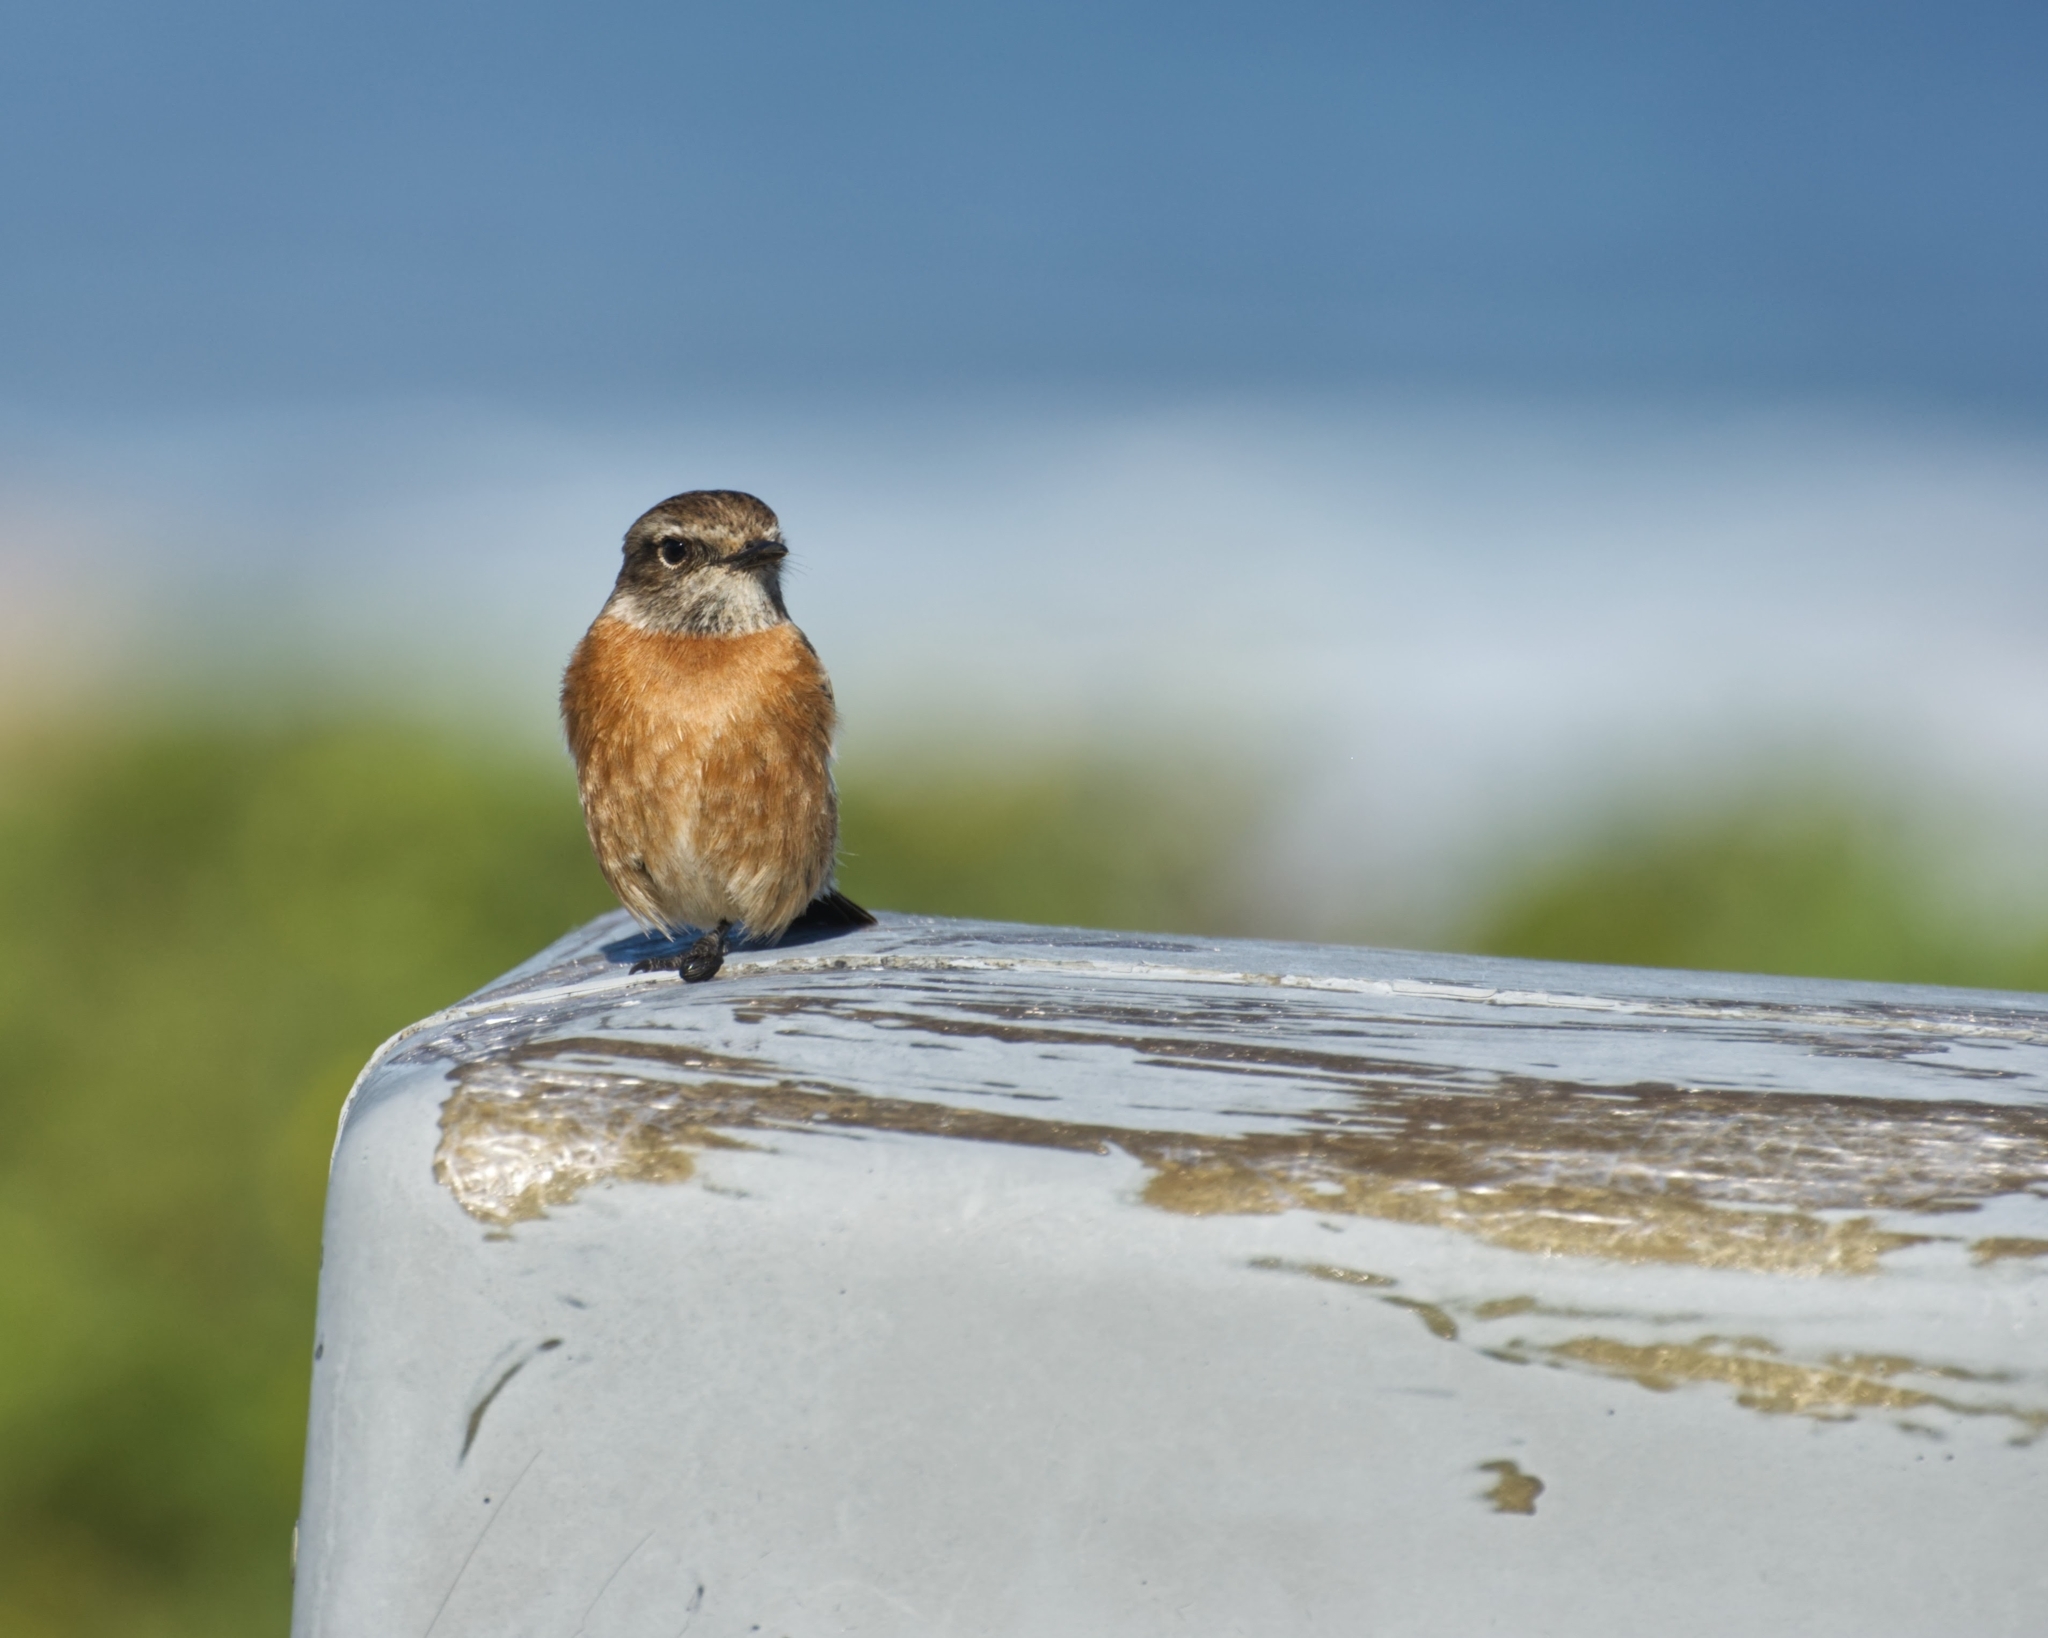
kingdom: Animalia
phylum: Chordata
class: Aves
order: Passeriformes
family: Muscicapidae
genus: Saxicola
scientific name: Saxicola torquatus
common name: African stonechat
